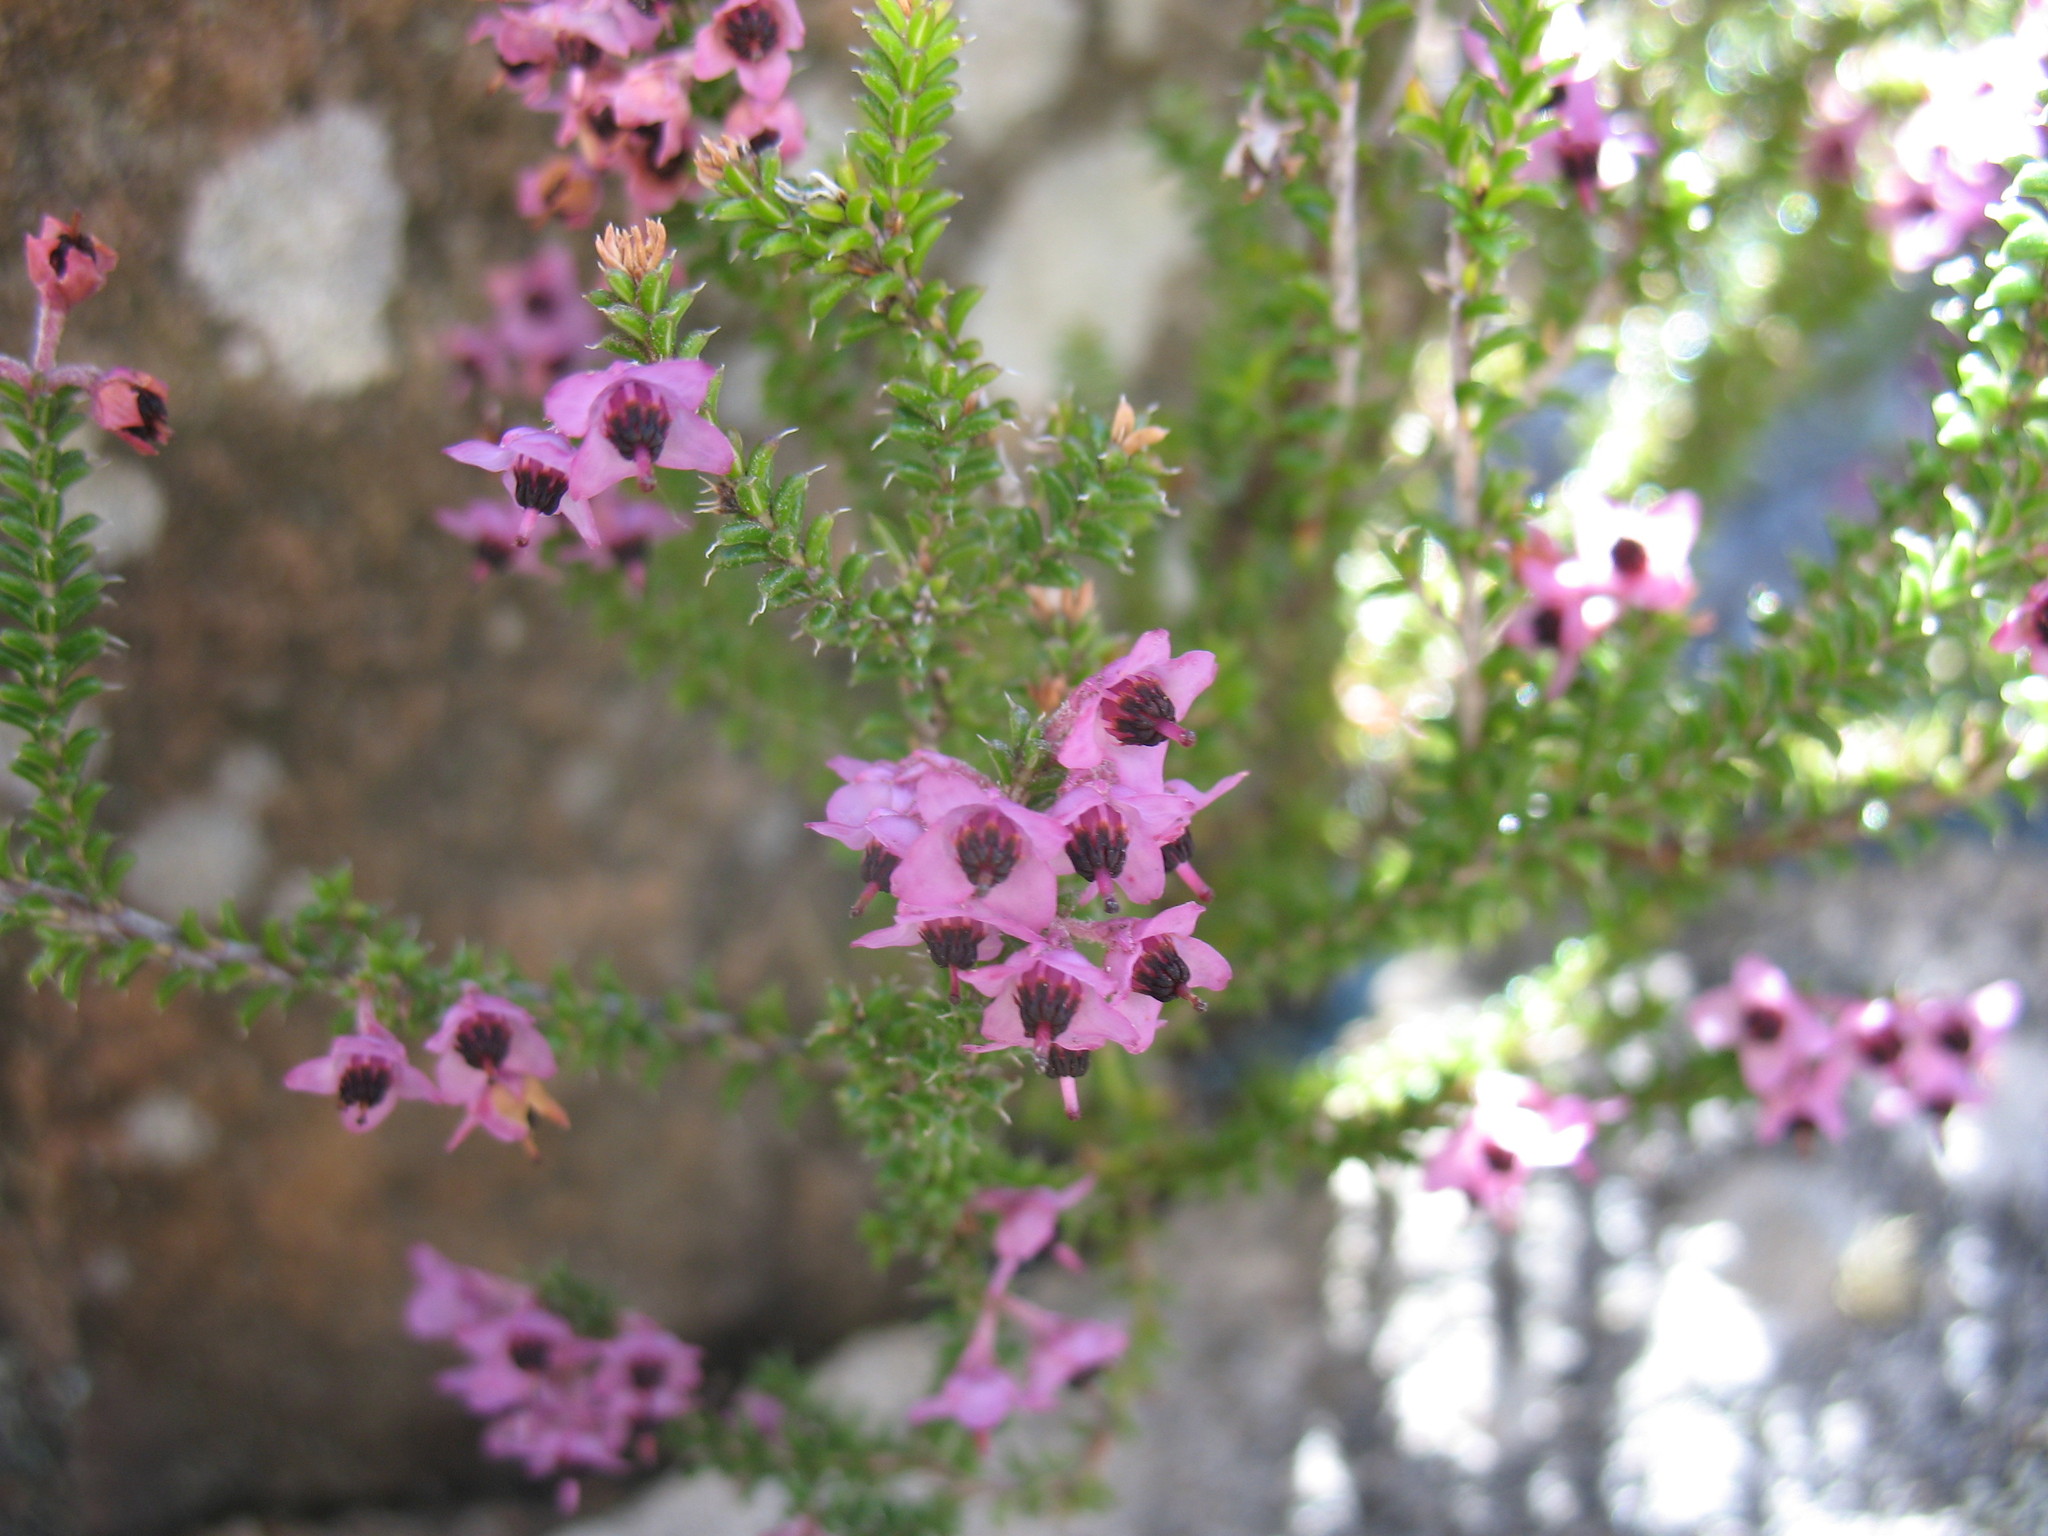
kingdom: Plantae
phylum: Tracheophyta
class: Magnoliopsida
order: Ericales
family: Ericaceae
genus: Erica
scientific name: Erica adnata
